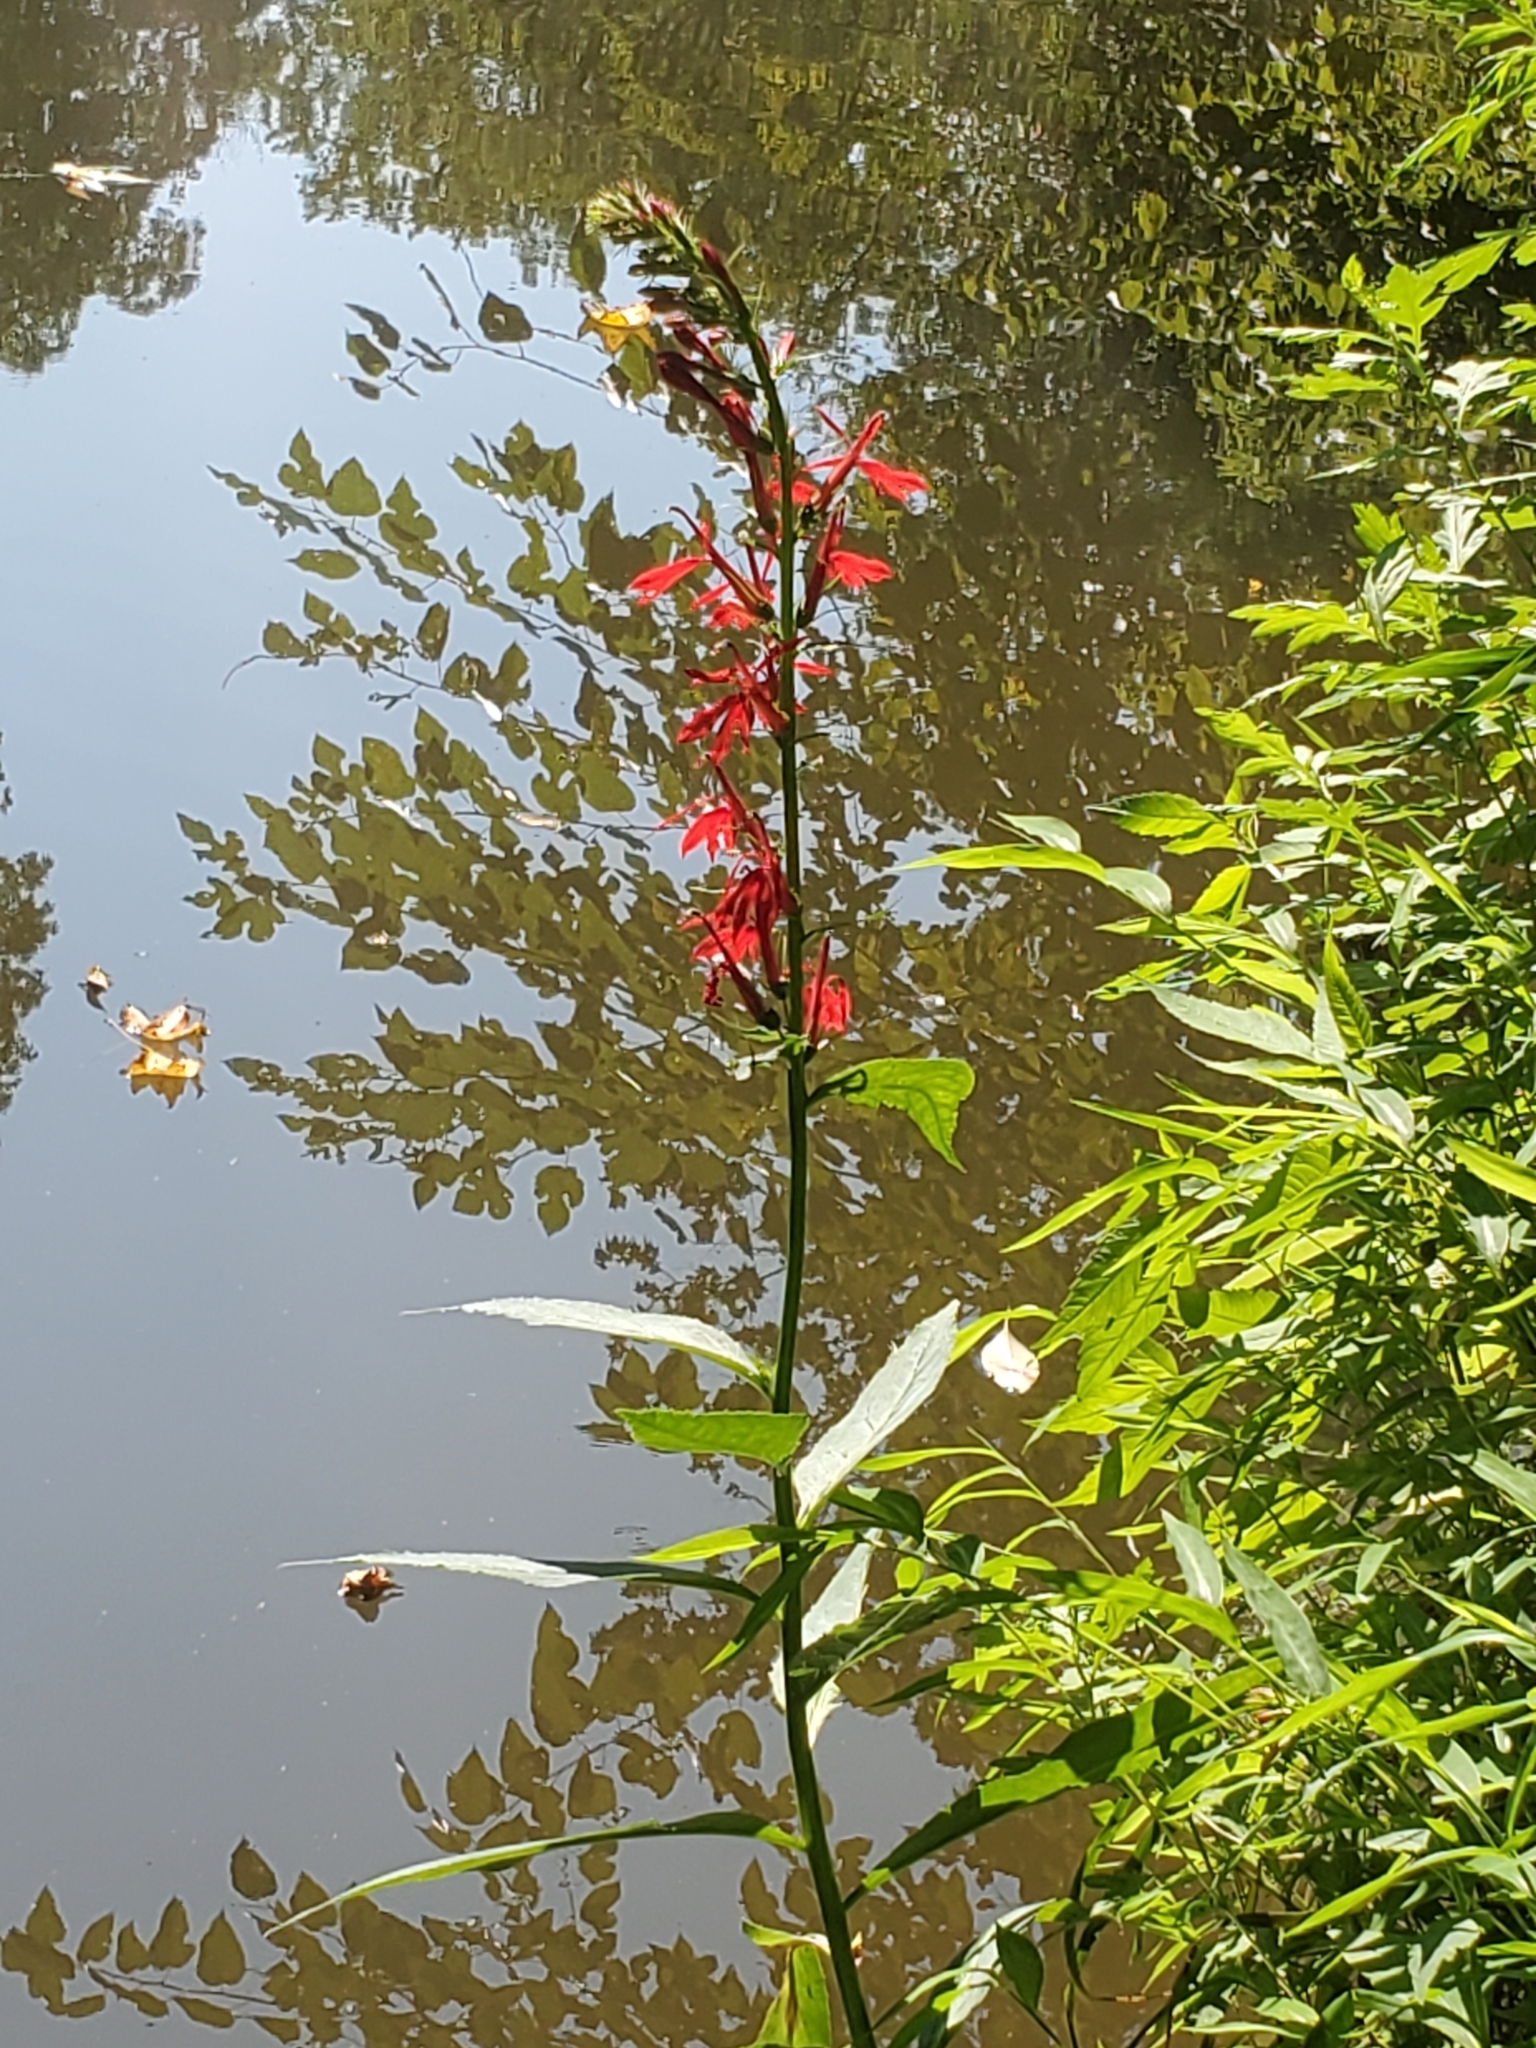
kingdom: Plantae
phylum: Tracheophyta
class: Magnoliopsida
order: Asterales
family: Campanulaceae
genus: Lobelia
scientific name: Lobelia cardinalis
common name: Cardinal flower
